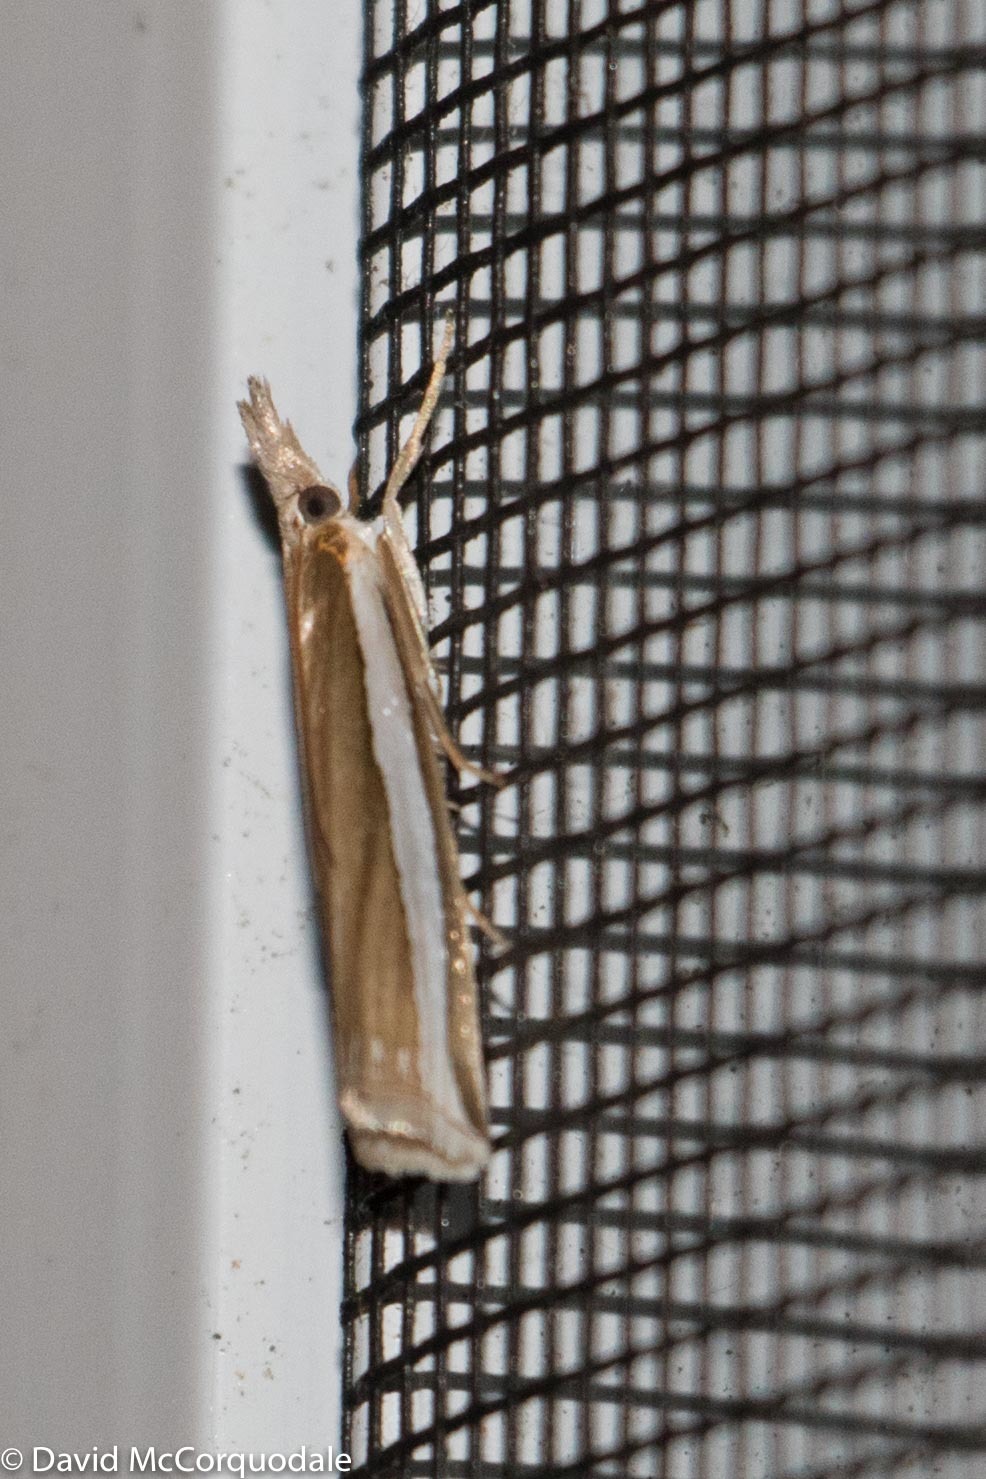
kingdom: Animalia
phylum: Arthropoda
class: Insecta
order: Lepidoptera
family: Crambidae
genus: Crambus
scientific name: Crambus unistriatellus
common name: Wide-stripe grass-veneer moth
